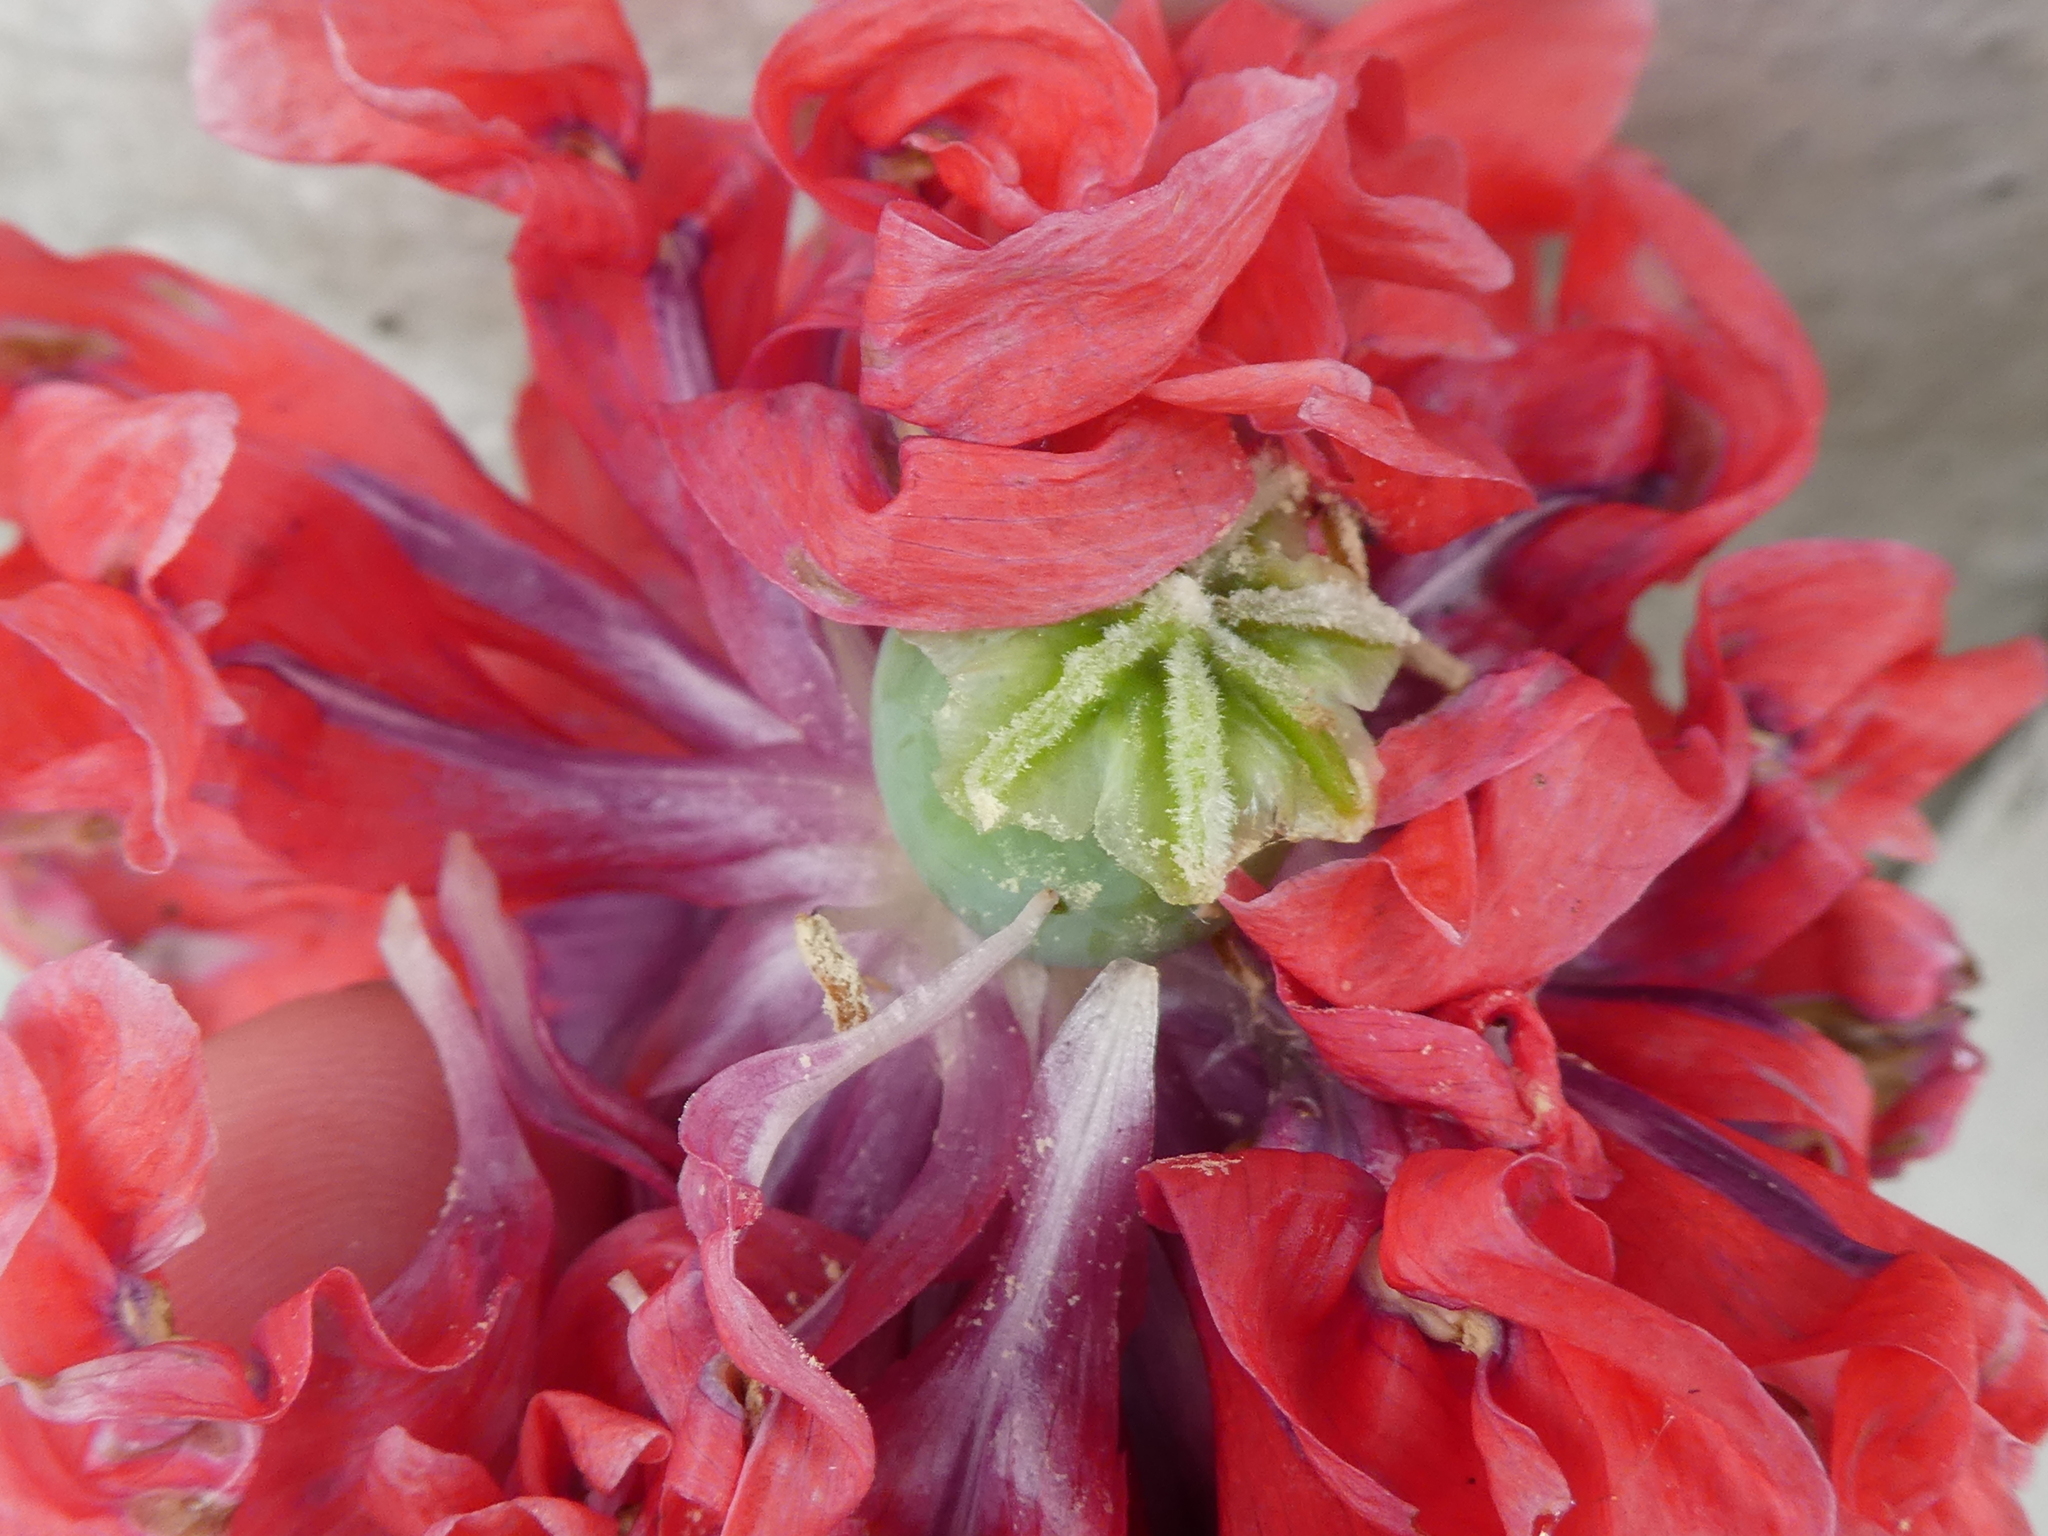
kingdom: Plantae
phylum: Tracheophyta
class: Magnoliopsida
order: Ranunculales
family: Papaveraceae
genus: Papaver
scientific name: Papaver somniferum
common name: Opium poppy
